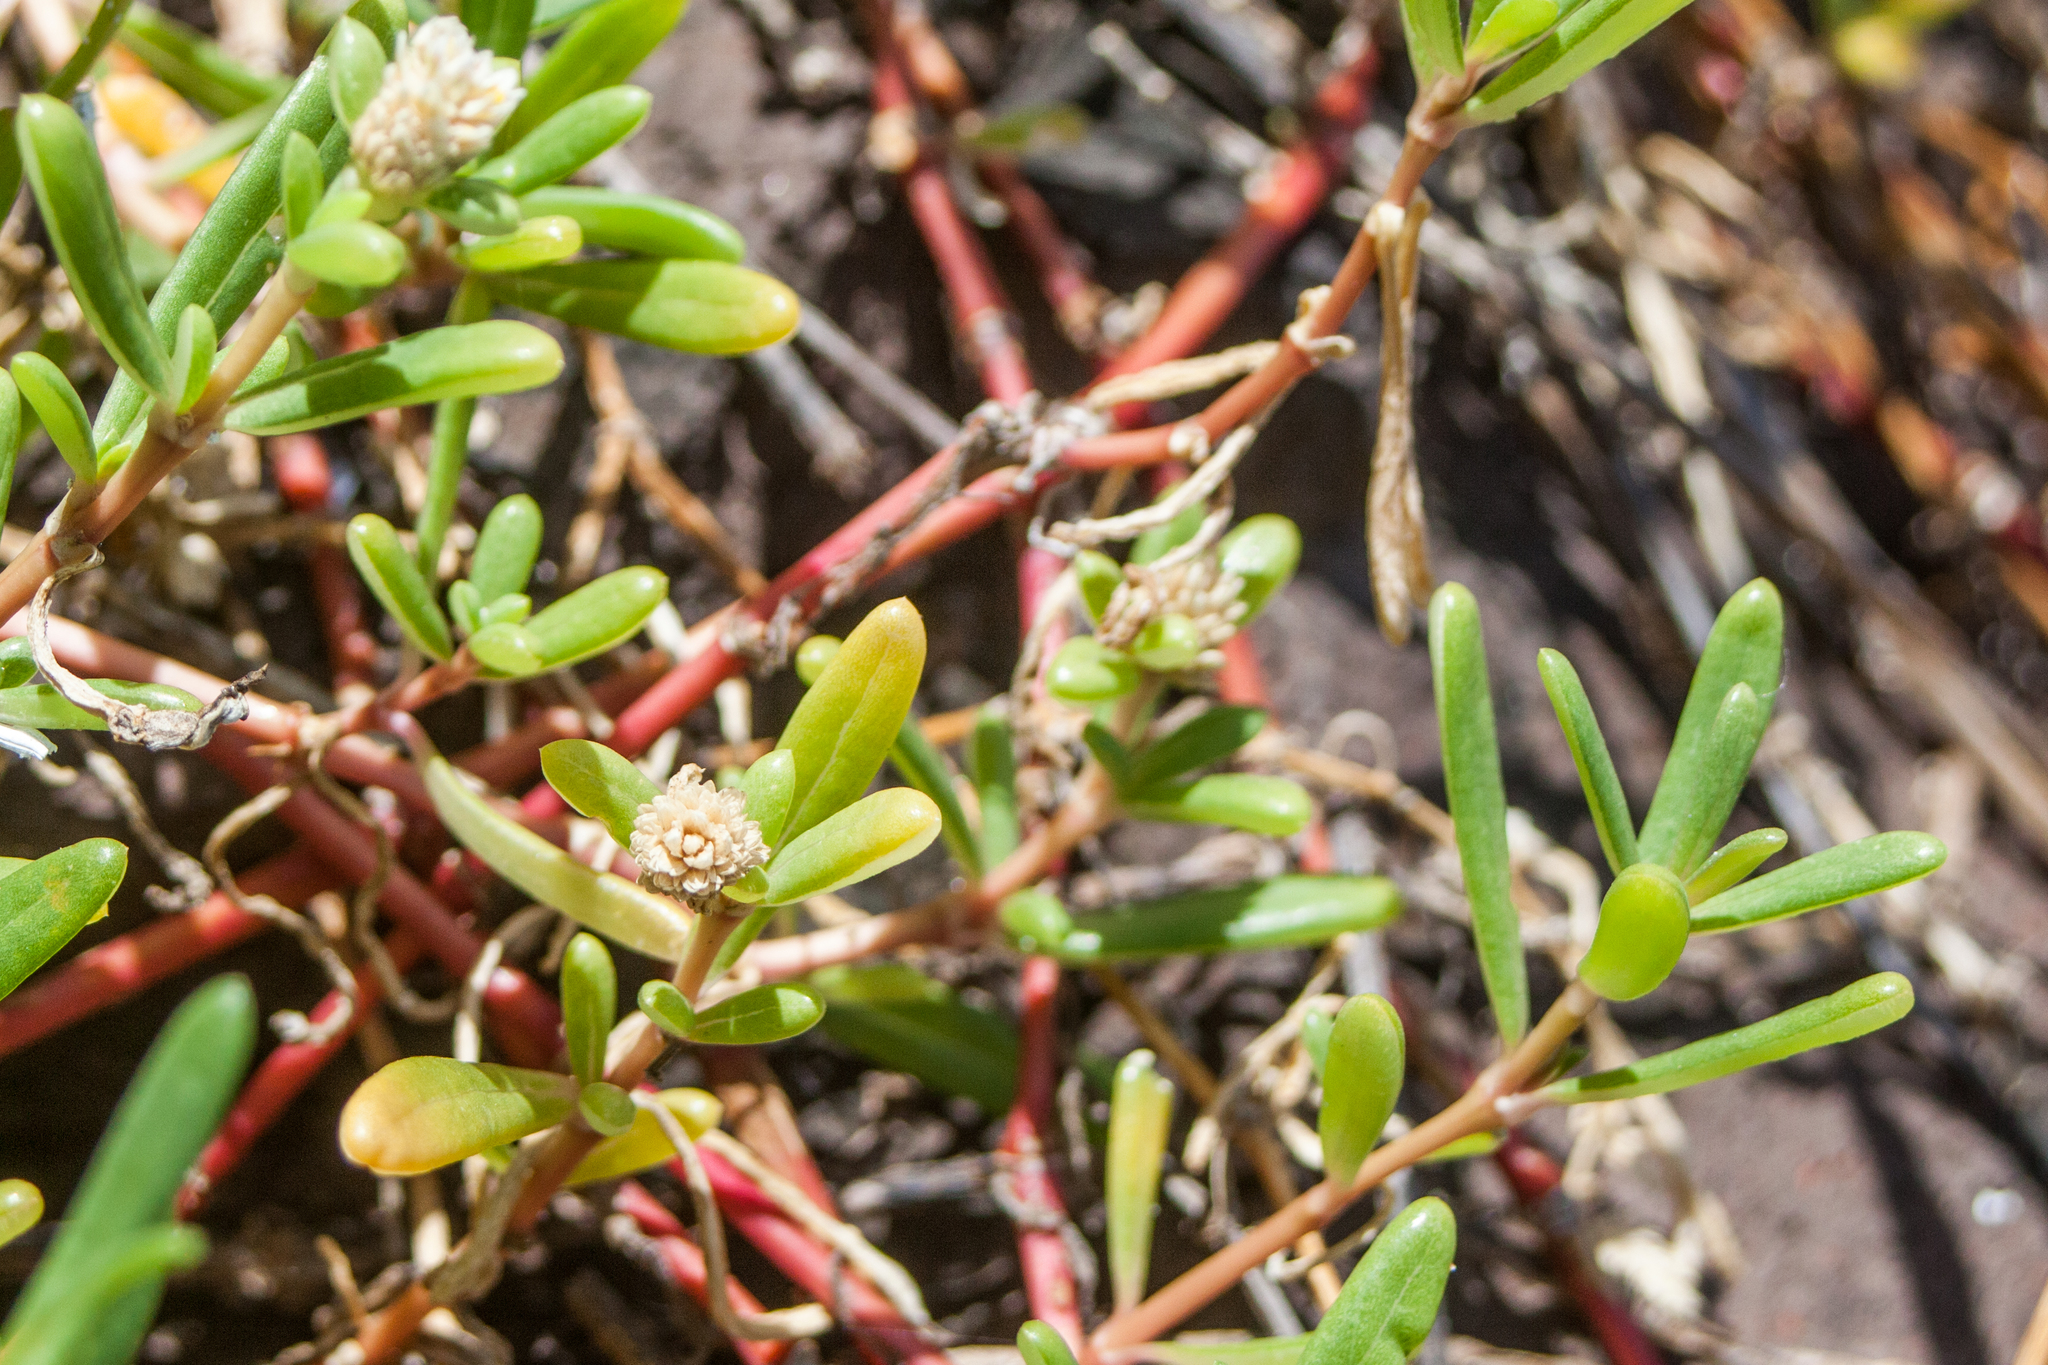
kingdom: Plantae
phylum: Tracheophyta
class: Magnoliopsida
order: Caryophyllales
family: Amaranthaceae
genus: Gomphrena
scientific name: Gomphrena portulacoides
